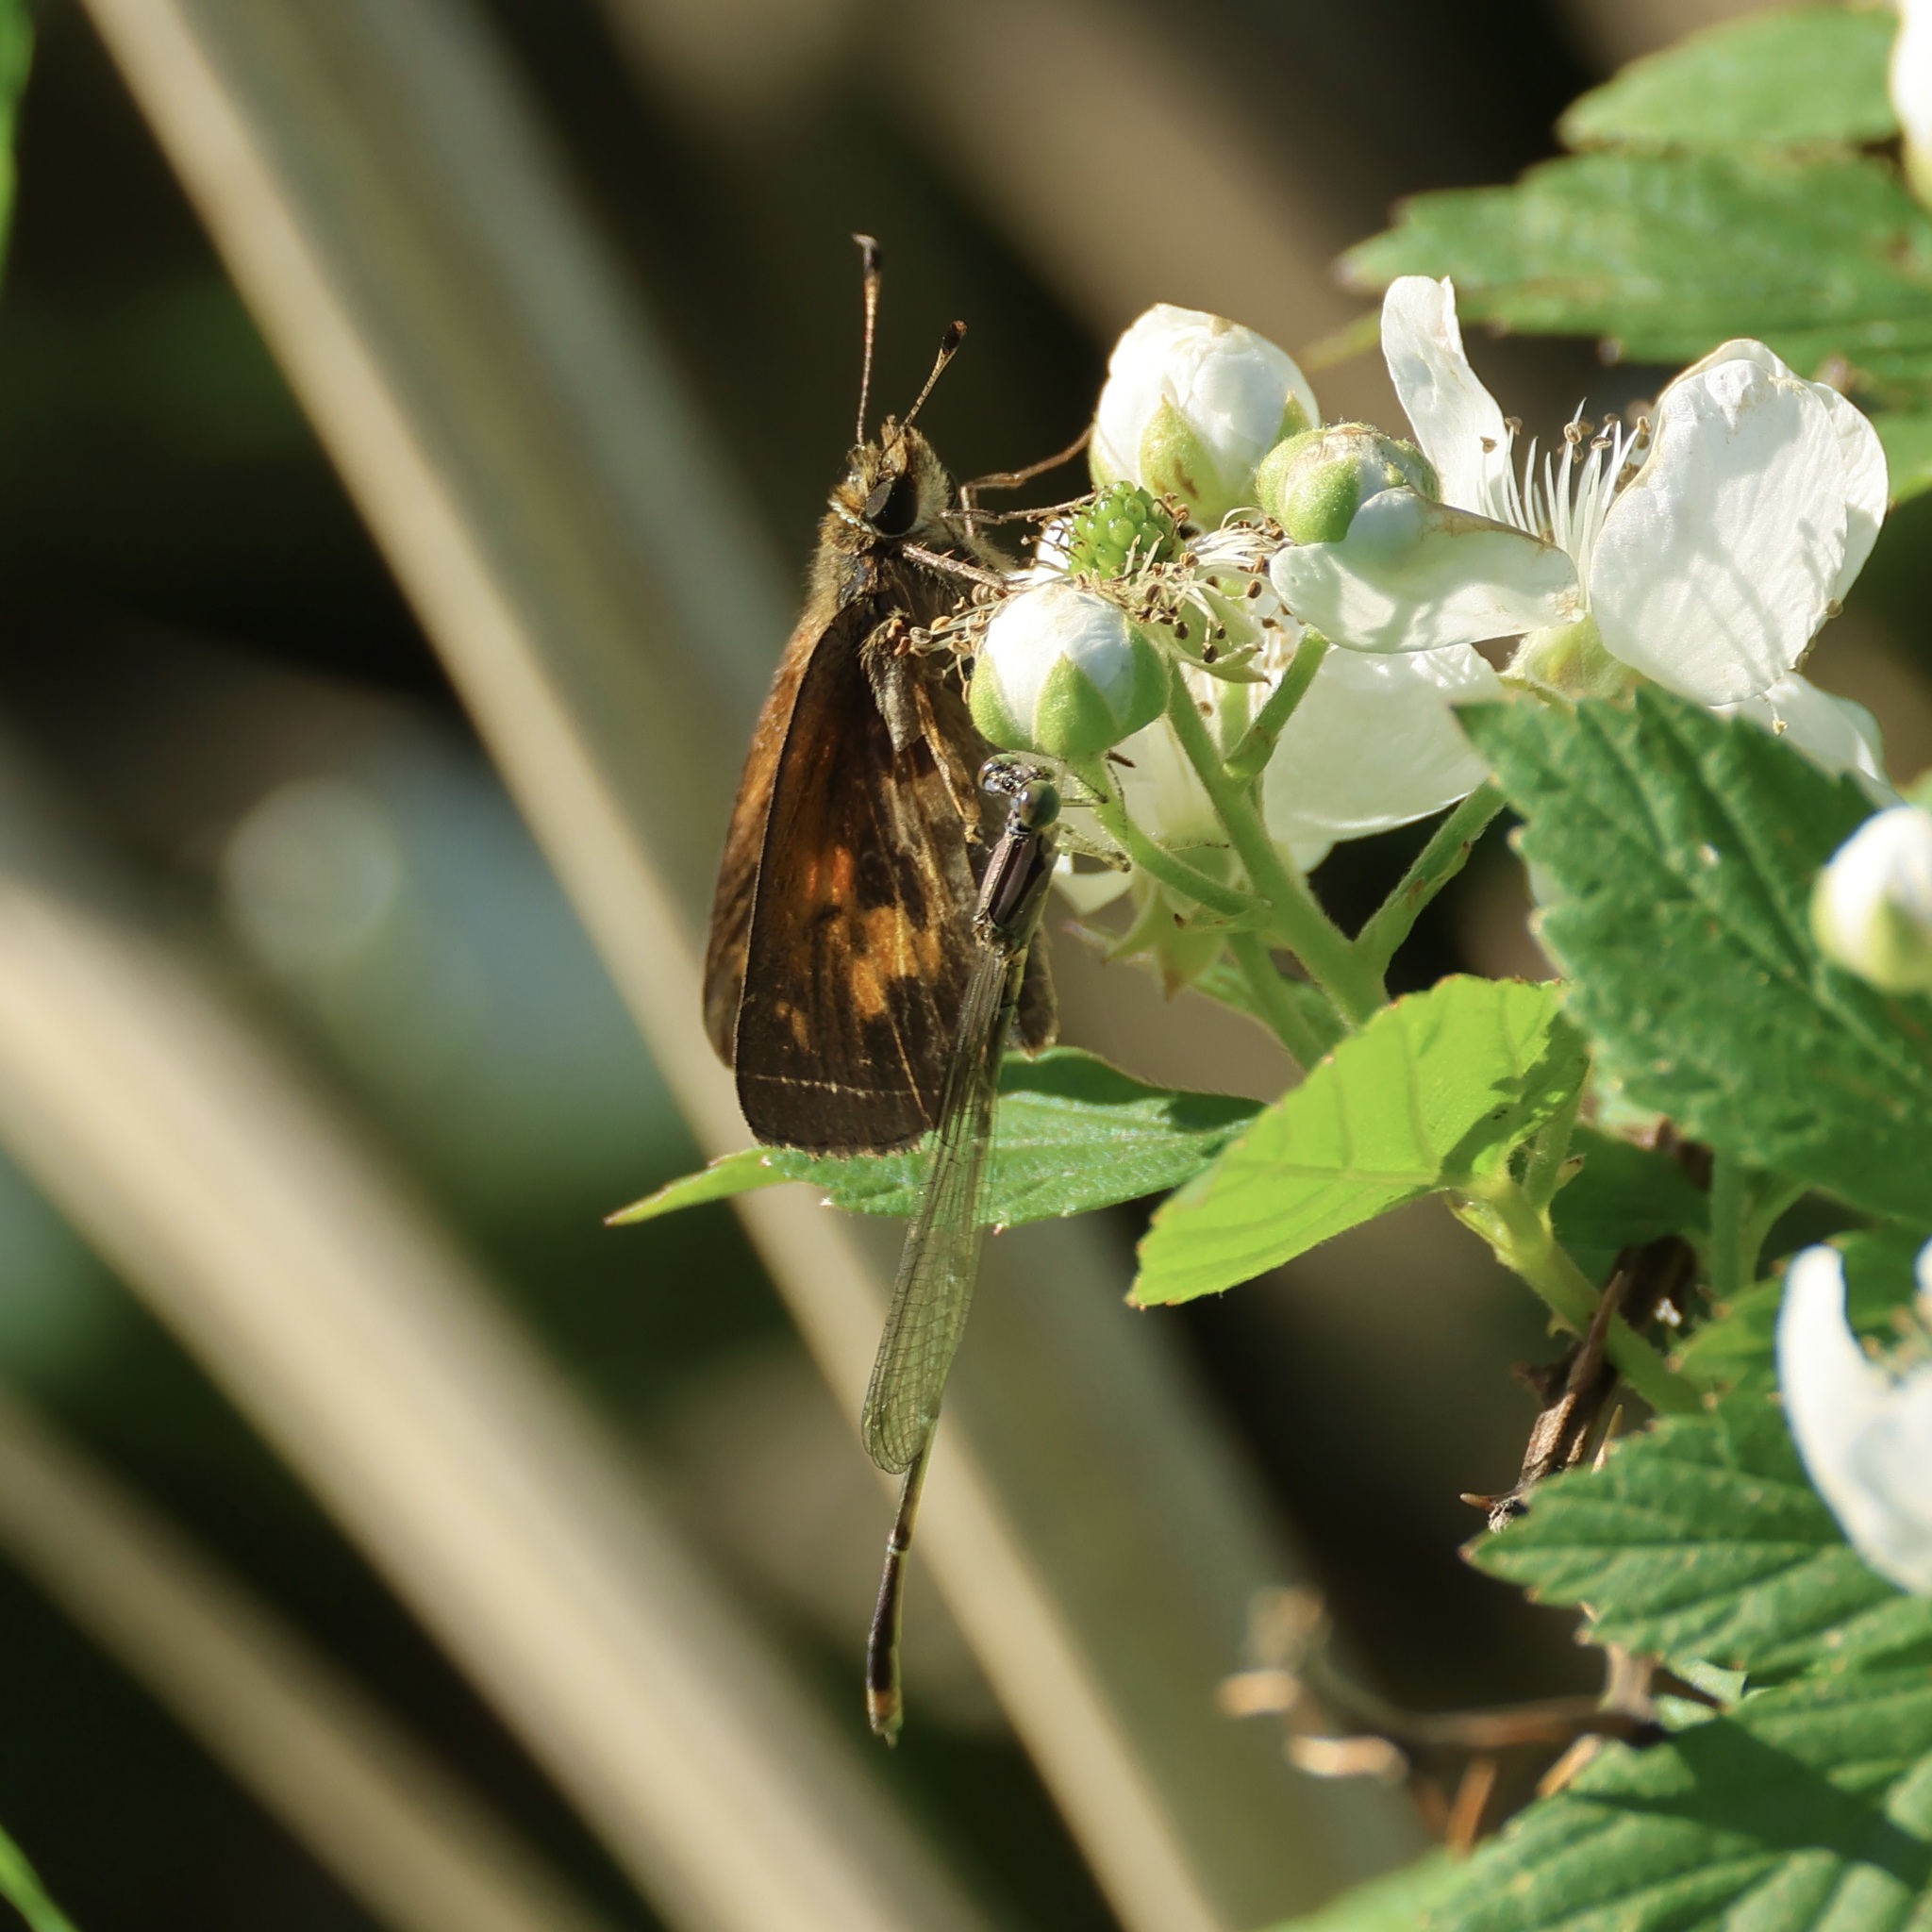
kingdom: Animalia
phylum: Arthropoda
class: Insecta
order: Lepidoptera
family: Hesperiidae
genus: Poanes
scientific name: Poanes viator
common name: Broad-winged skipper
